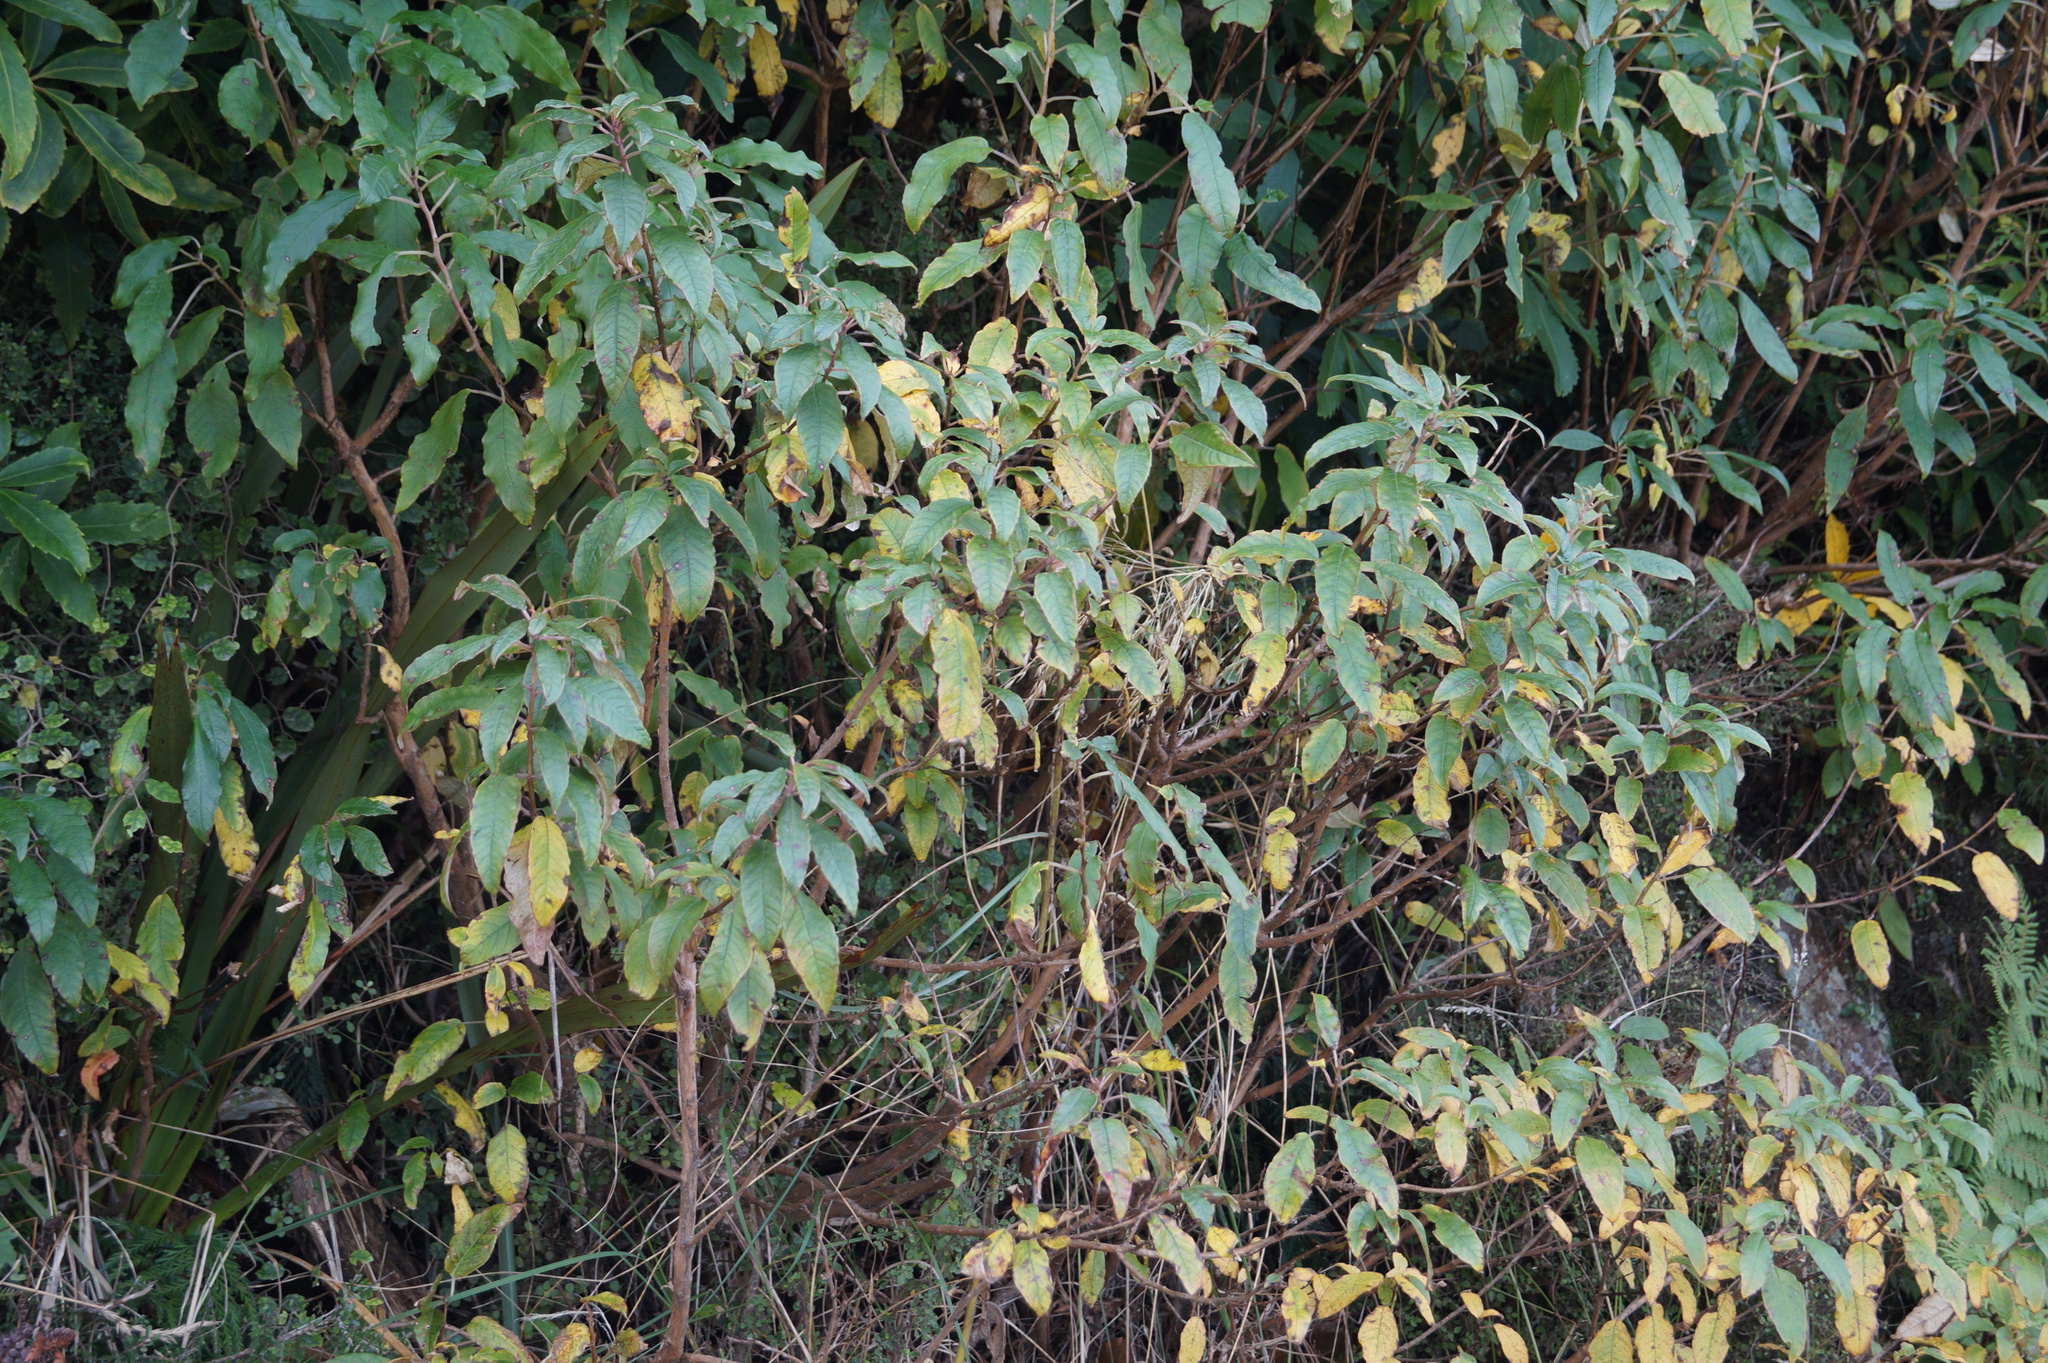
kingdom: Plantae
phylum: Tracheophyta
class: Magnoliopsida
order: Myrtales
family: Onagraceae
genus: Fuchsia
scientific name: Fuchsia excorticata
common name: Tree fuchsia
